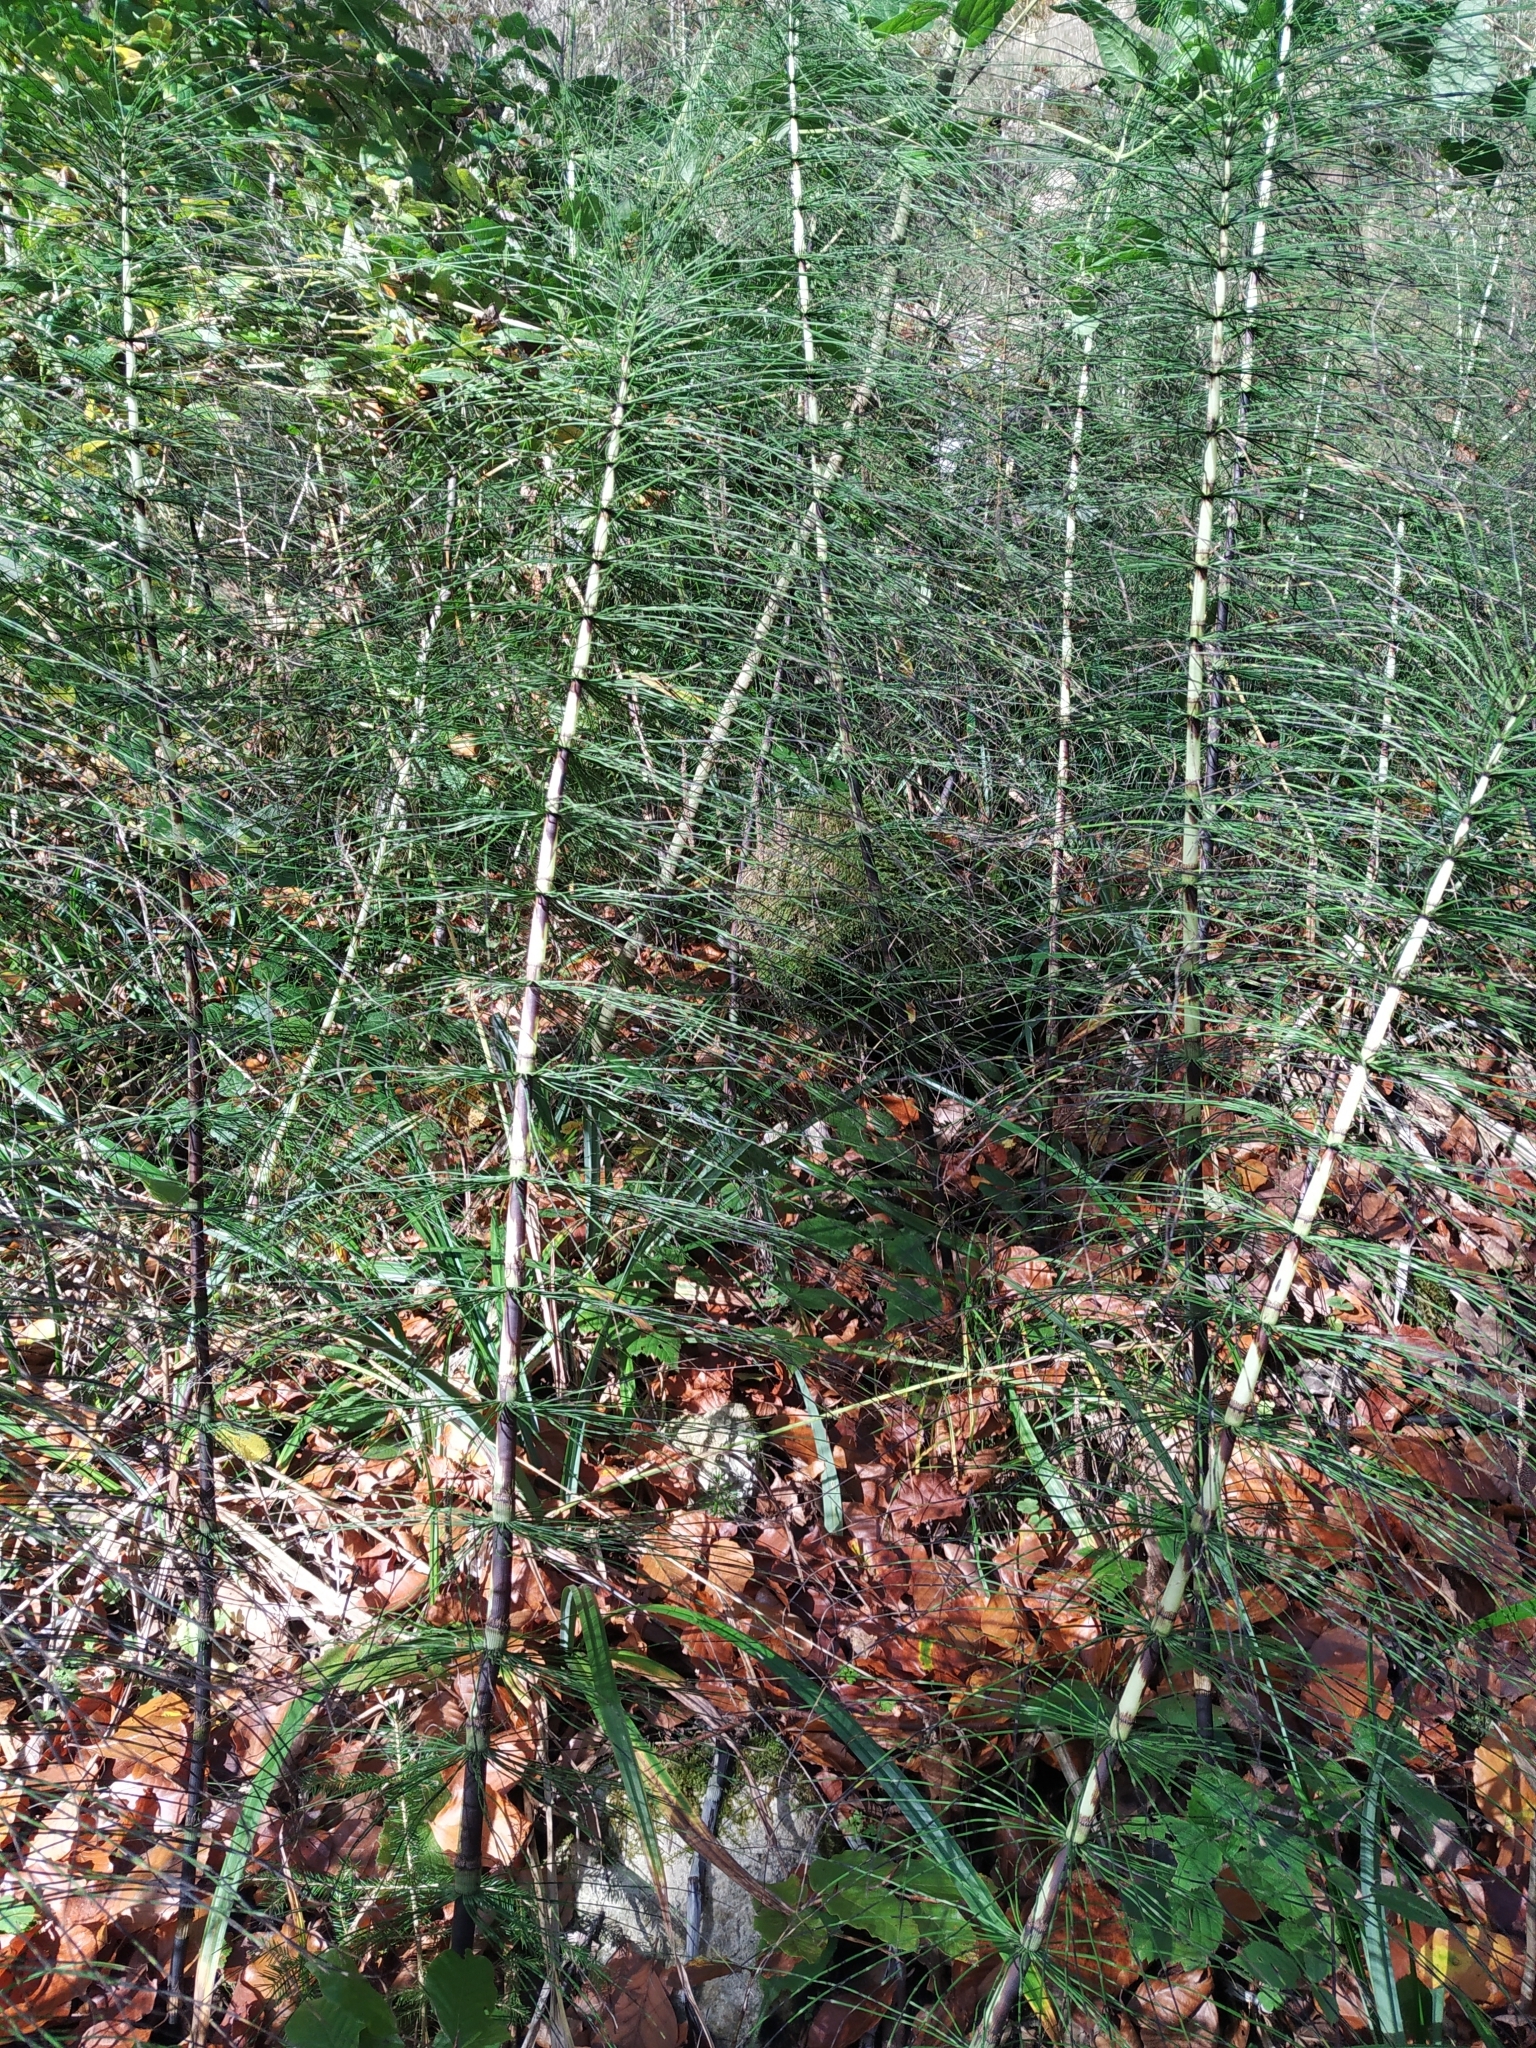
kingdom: Plantae
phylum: Tracheophyta
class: Polypodiopsida
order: Equisetales
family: Equisetaceae
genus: Equisetum
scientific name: Equisetum telmateia
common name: Great horsetail
